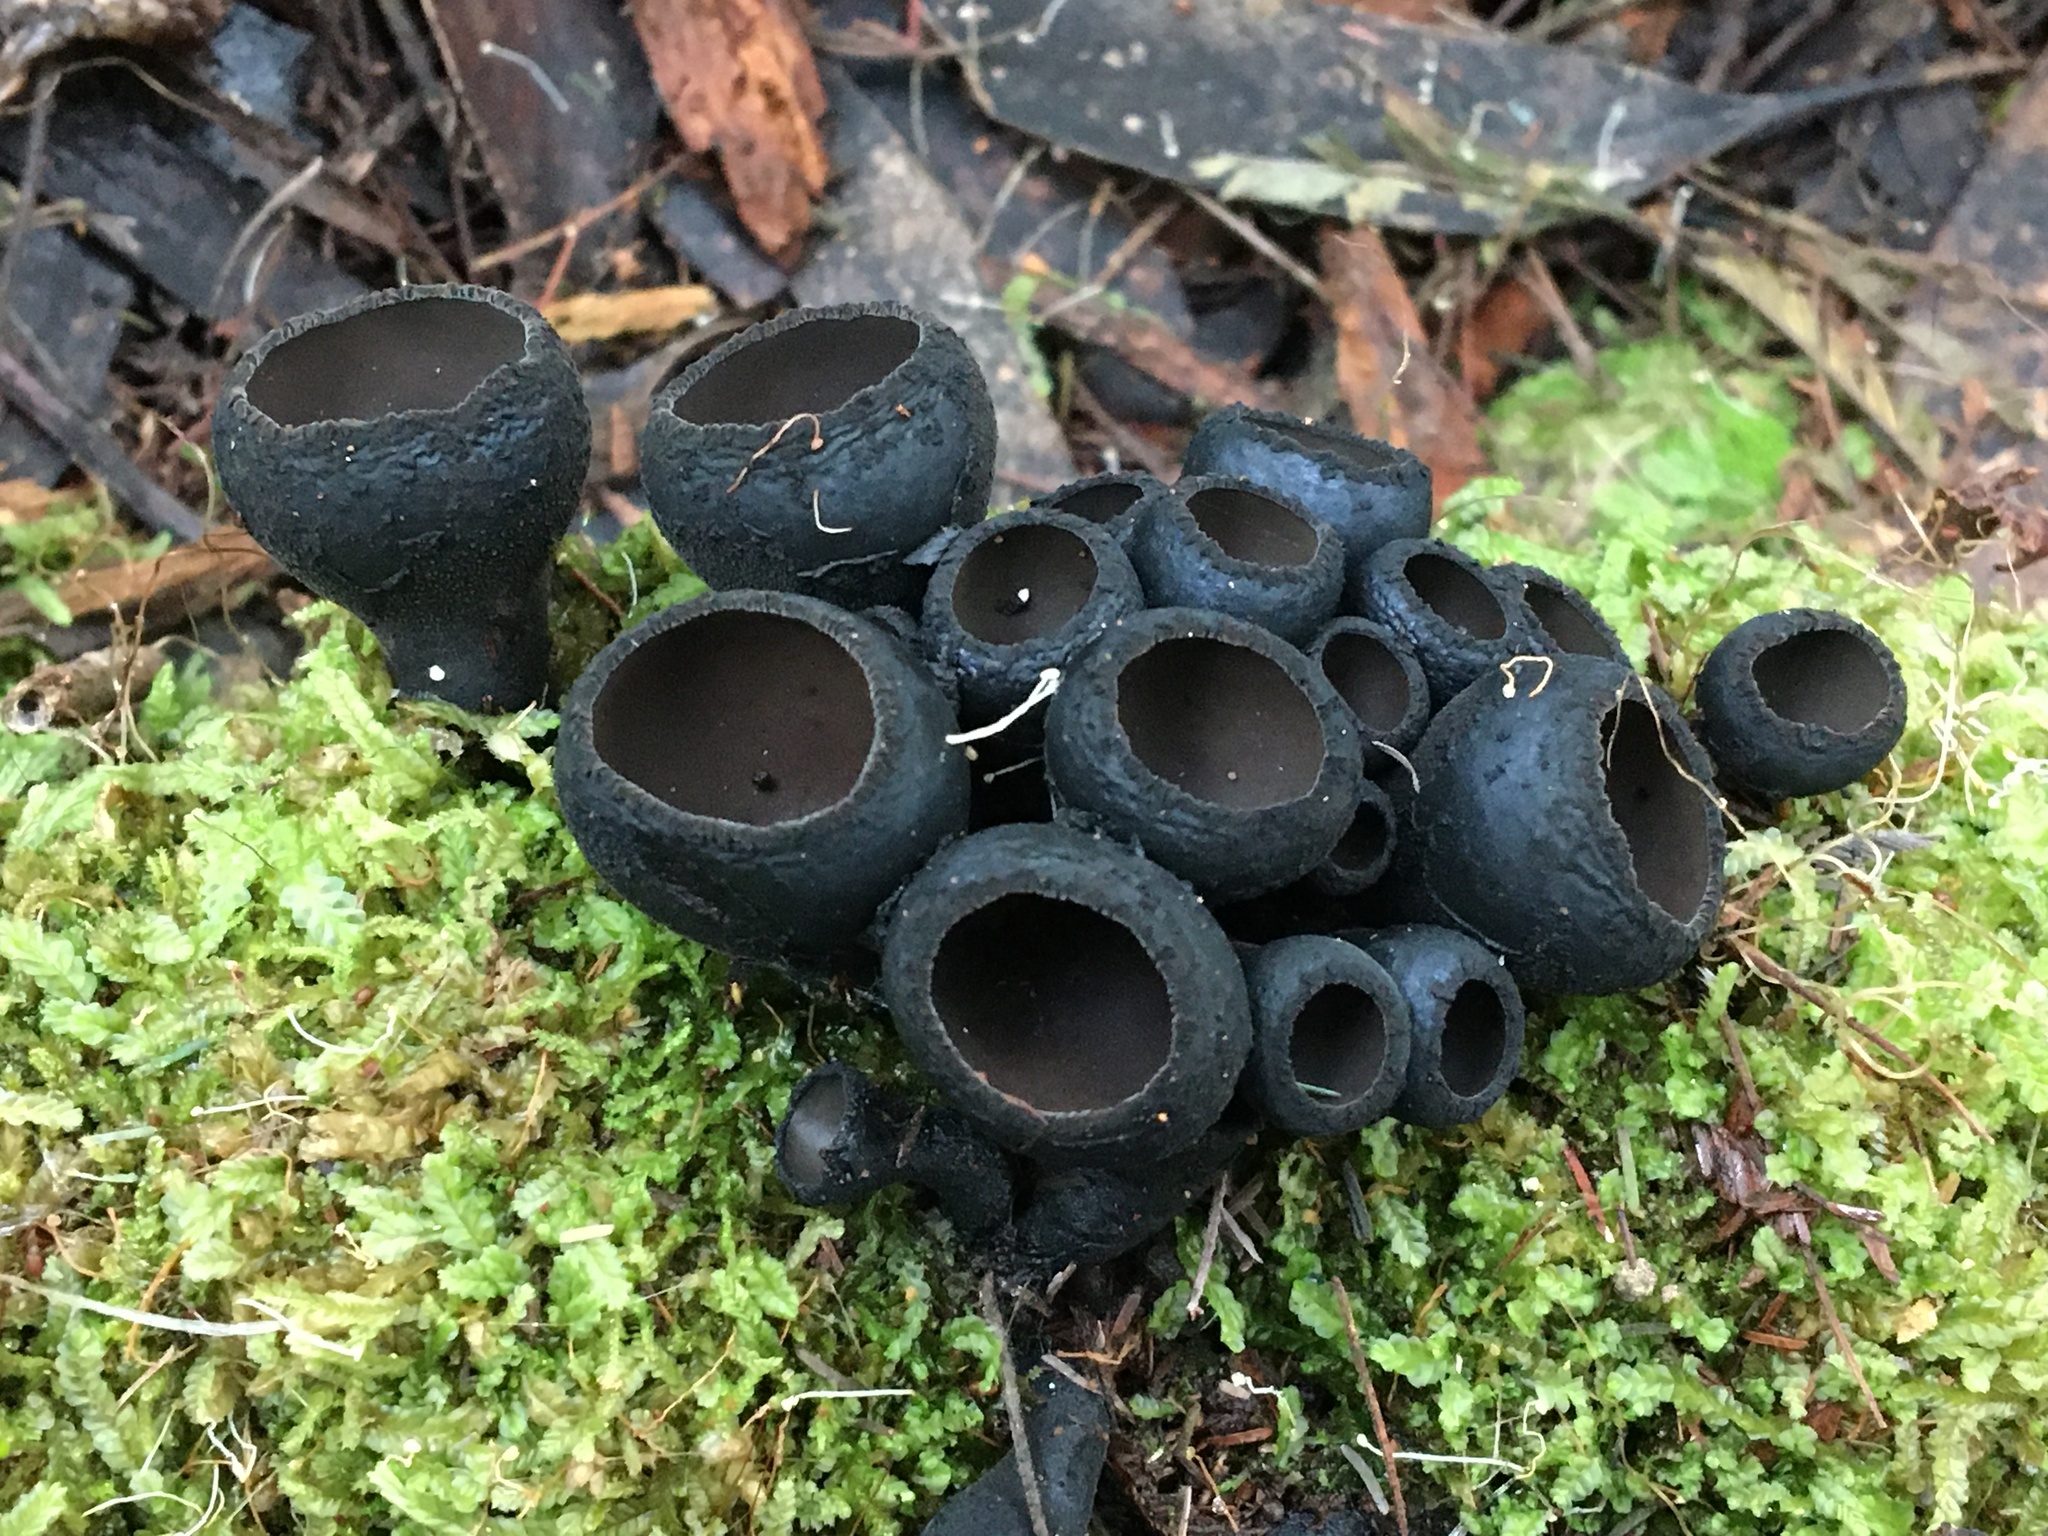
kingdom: Fungi
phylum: Ascomycota
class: Pezizomycetes
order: Pezizales
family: Sarcosomataceae
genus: Plectania
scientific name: Plectania campylospora
